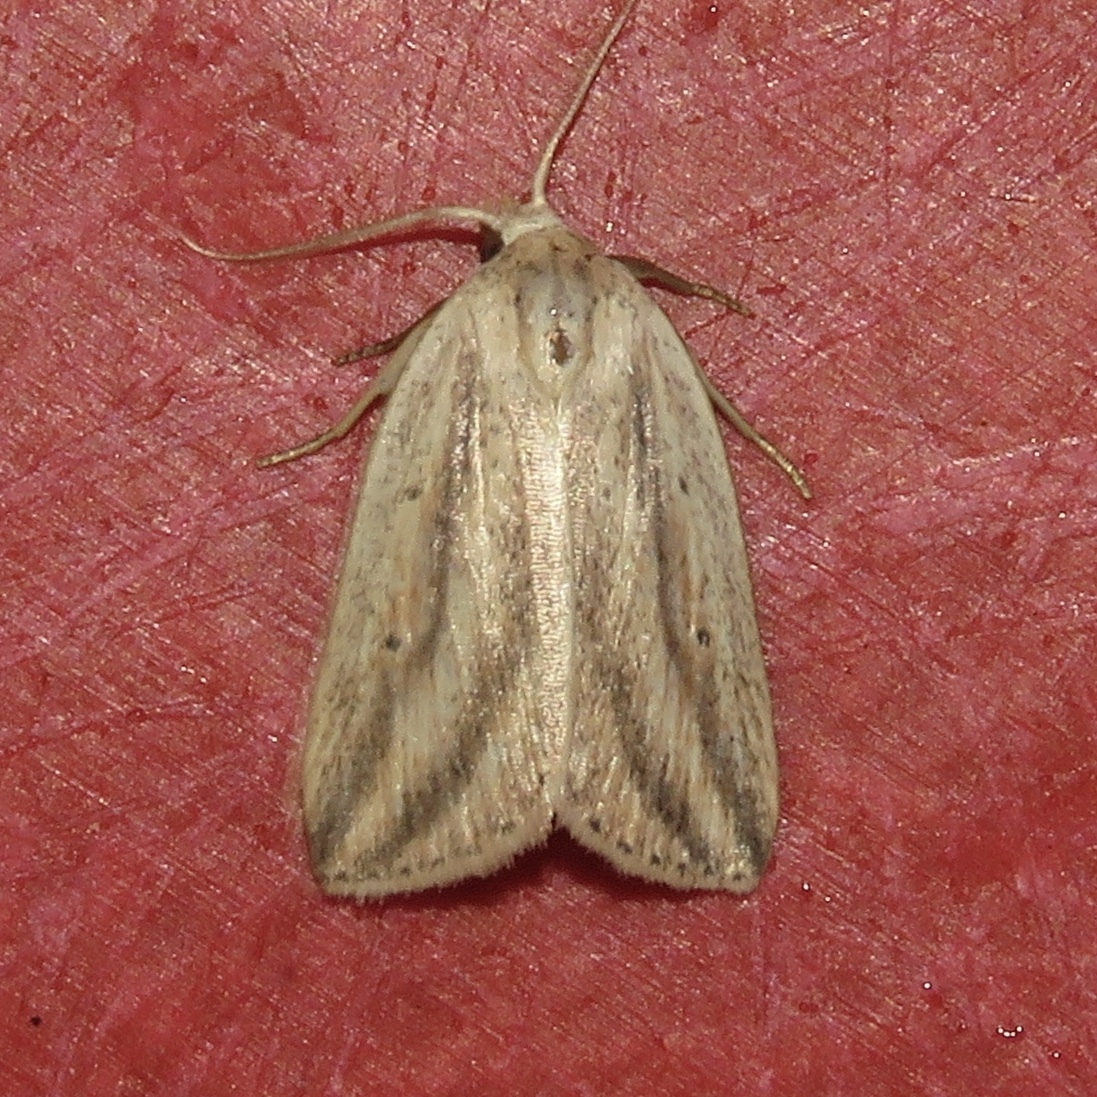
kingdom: Animalia
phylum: Arthropoda
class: Insecta
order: Lepidoptera
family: Noctuidae
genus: Amolita
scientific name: Amolita fessa
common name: Feeble grass moth
